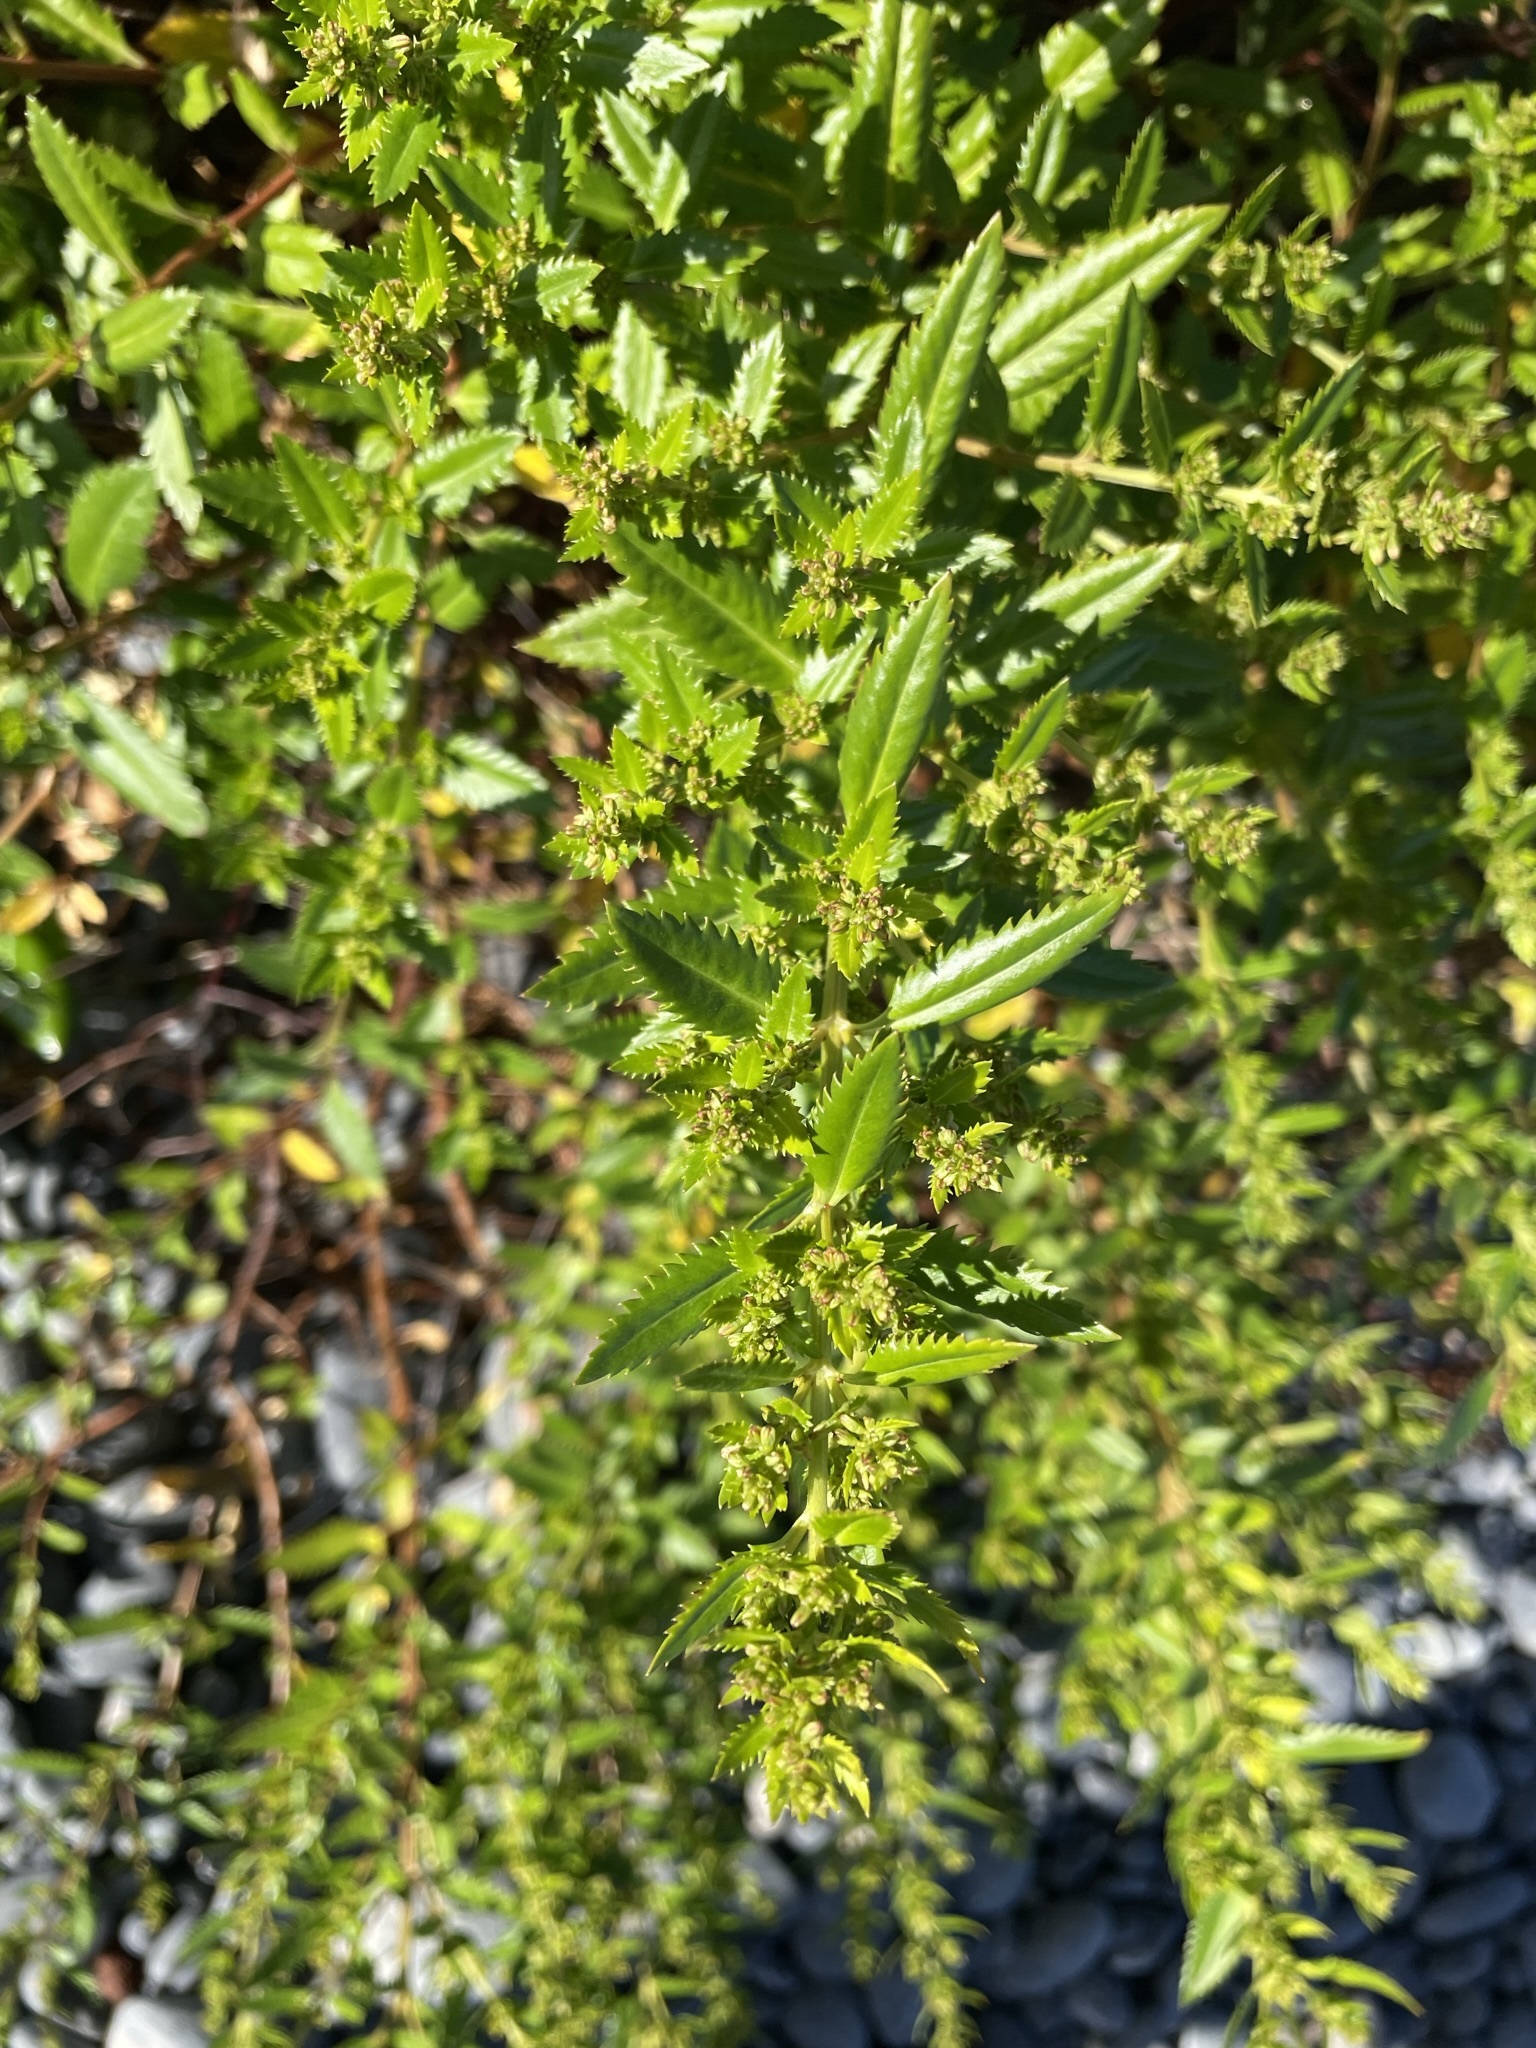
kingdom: Plantae
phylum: Tracheophyta
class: Magnoliopsida
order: Saxifragales
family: Haloragaceae
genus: Haloragis
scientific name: Haloragis erecta
